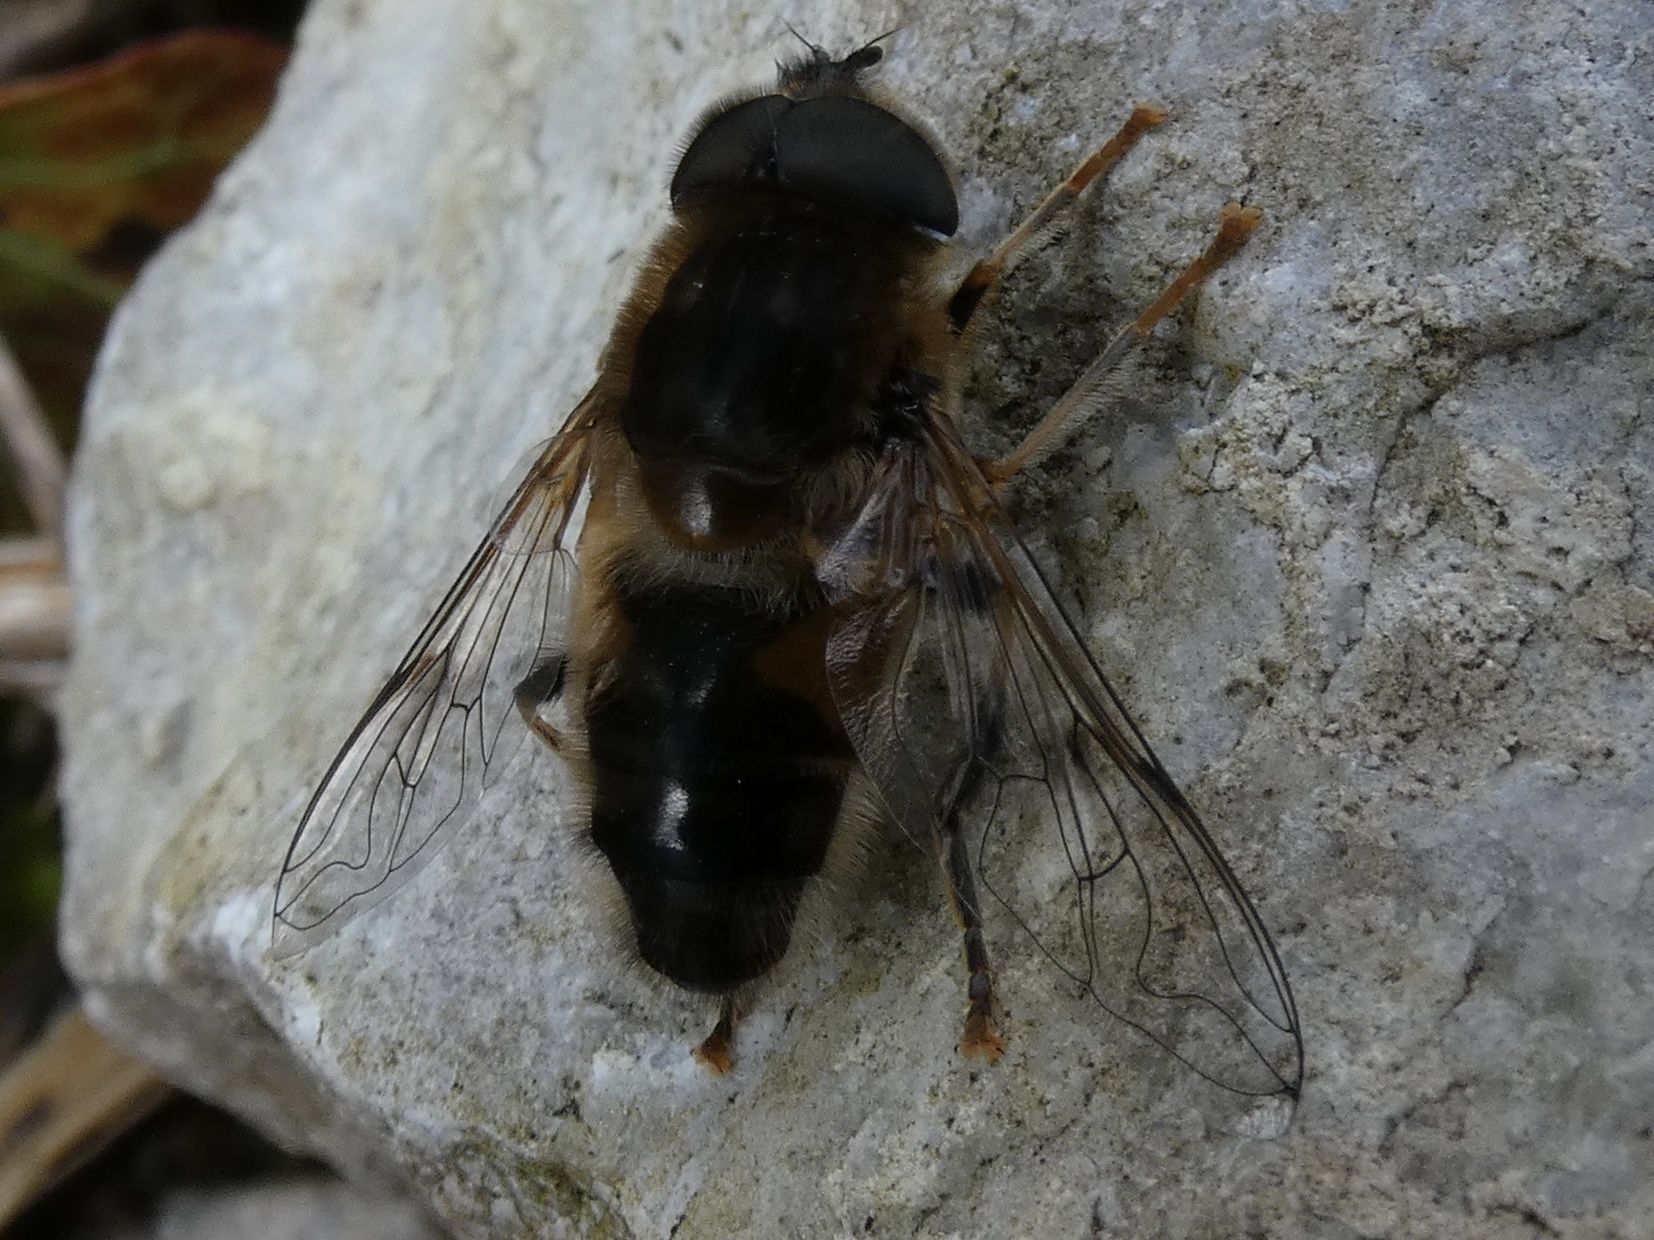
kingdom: Animalia
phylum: Arthropoda
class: Insecta
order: Diptera
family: Syrphidae
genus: Eristalis
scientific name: Eristalis pertinax
